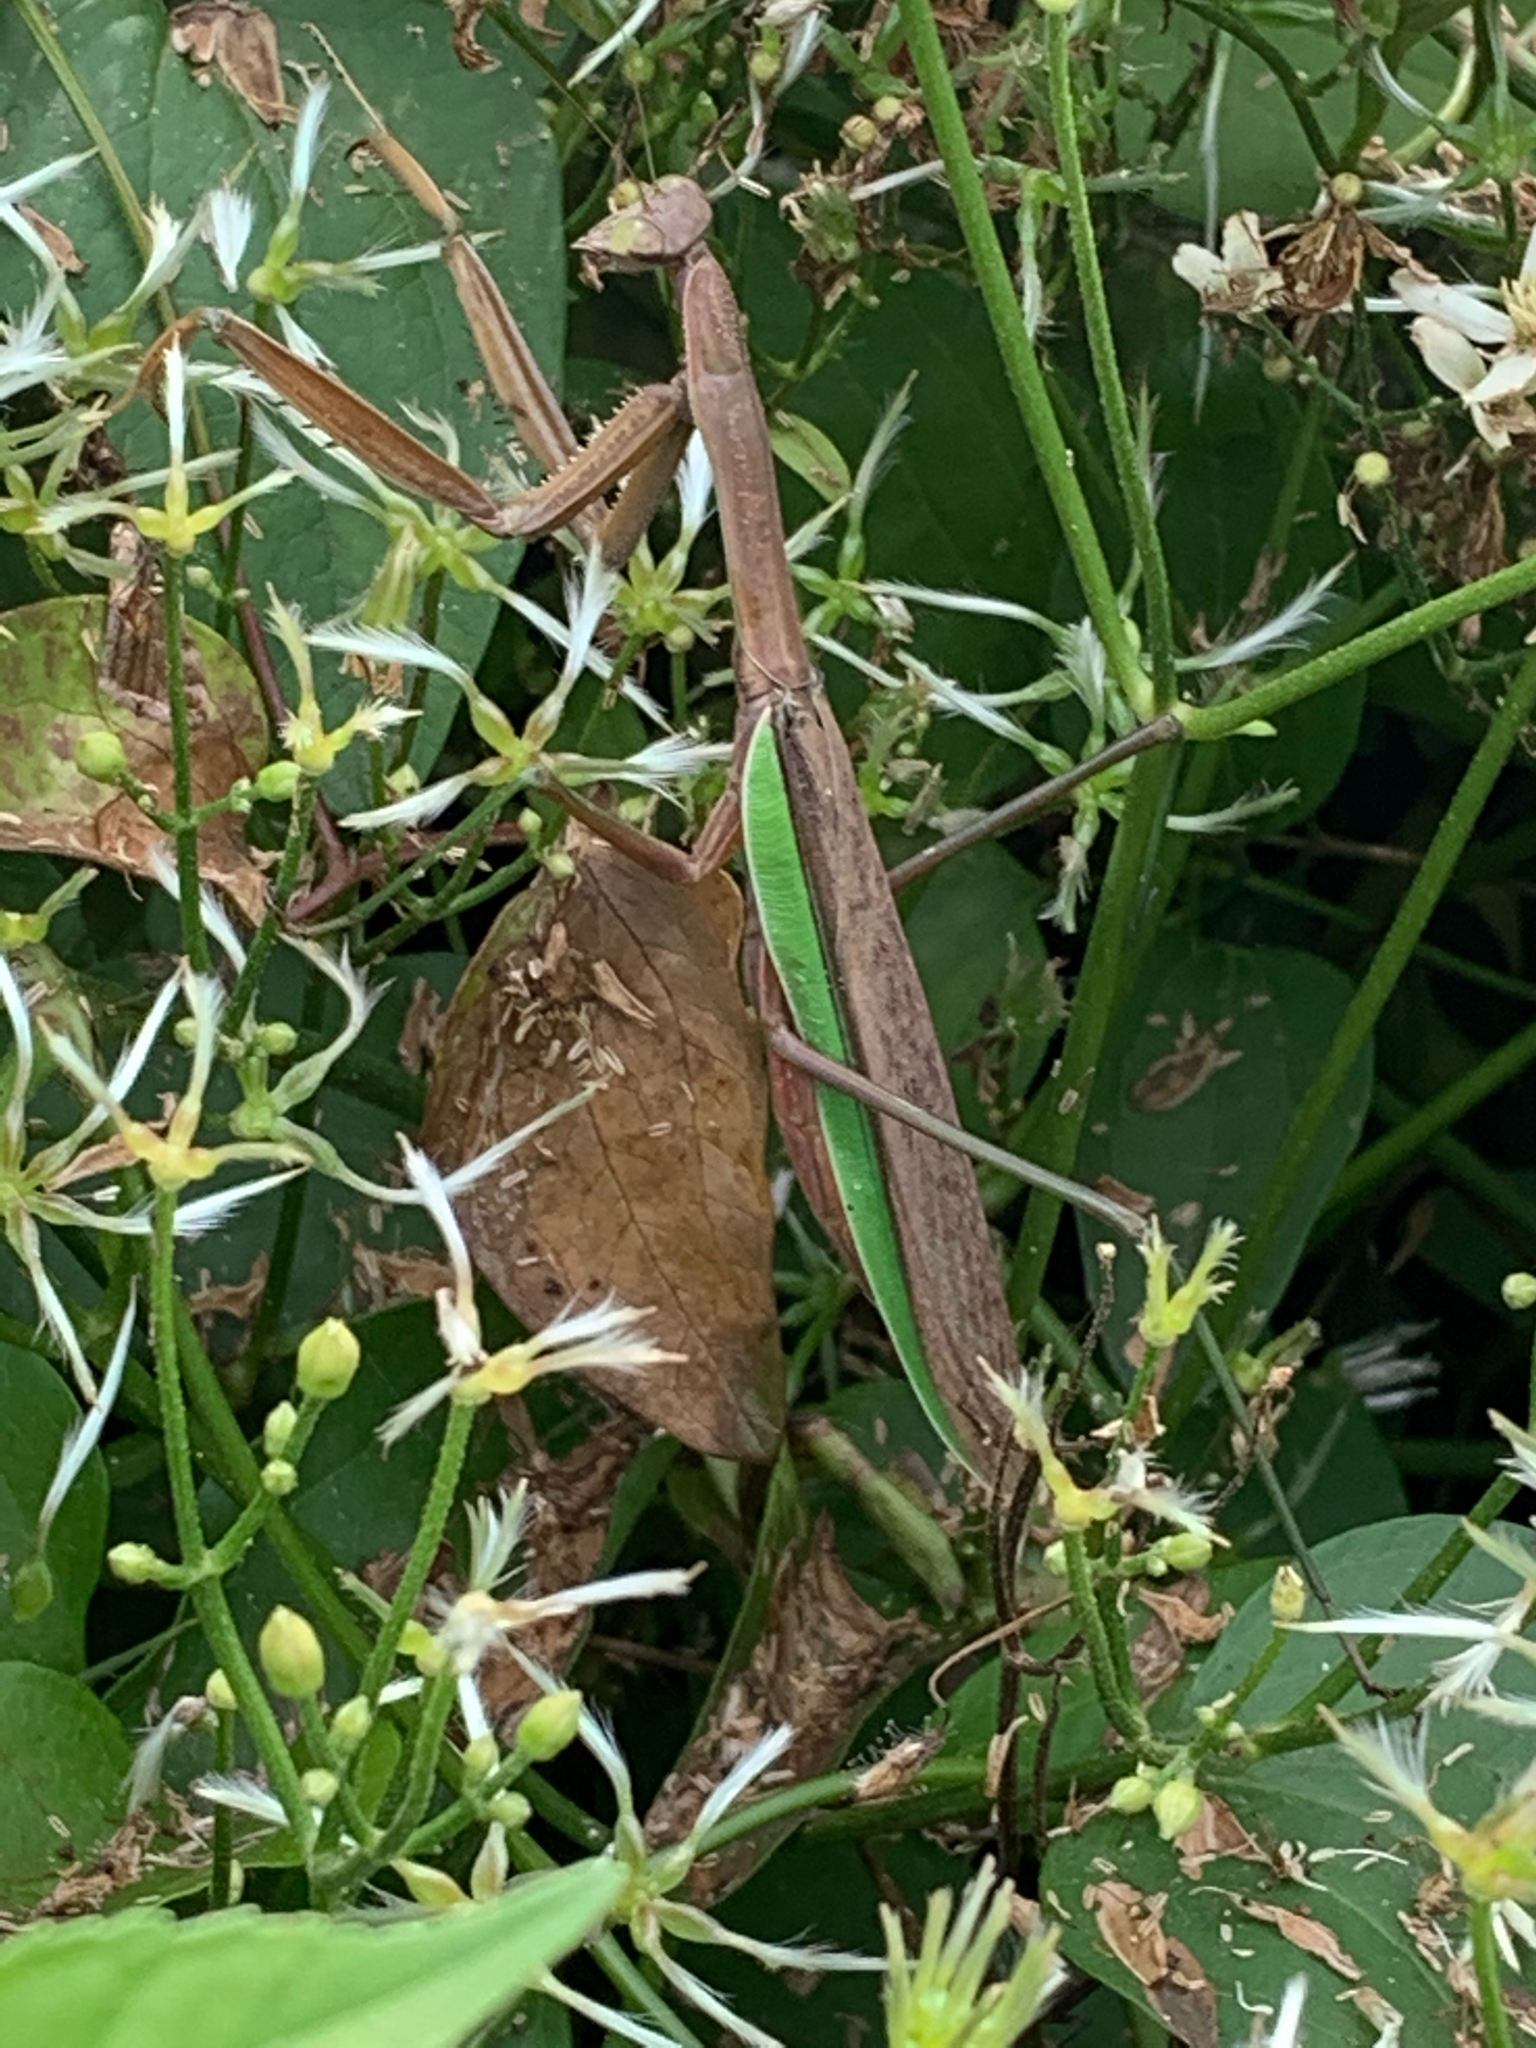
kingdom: Animalia
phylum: Arthropoda
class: Insecta
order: Mantodea
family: Mantidae
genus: Tenodera
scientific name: Tenodera sinensis
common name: Chinese mantis
